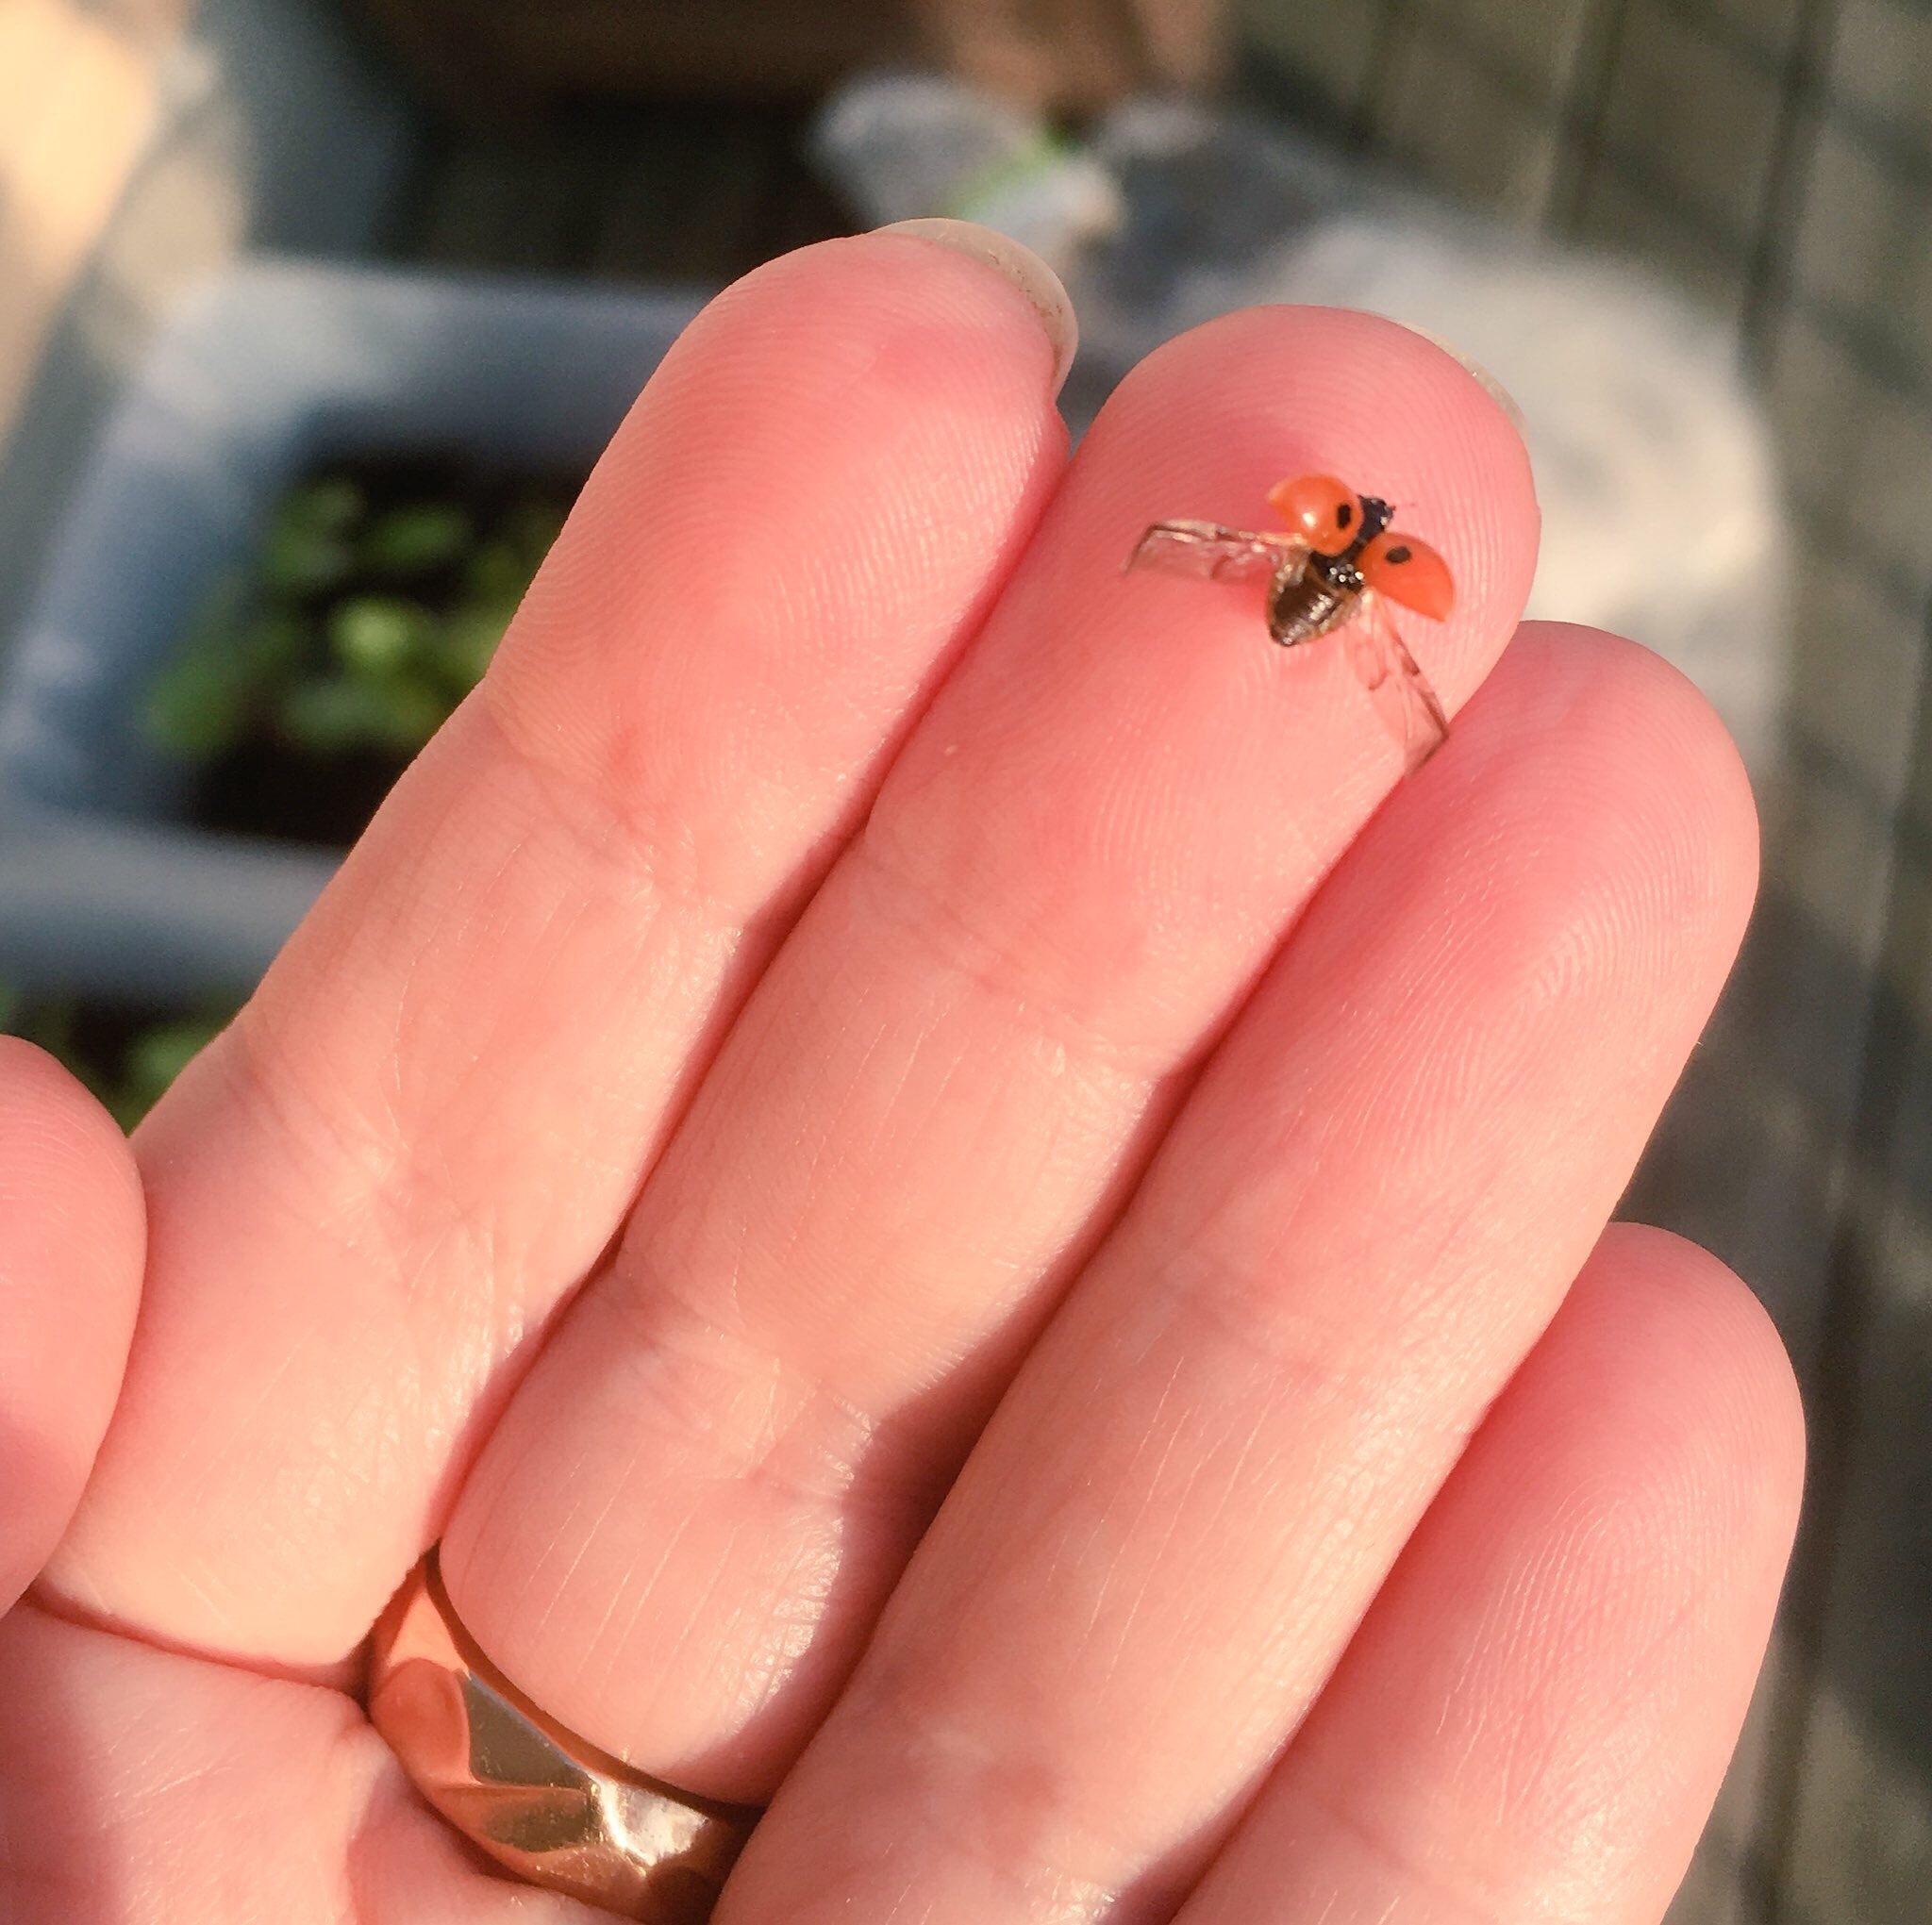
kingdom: Animalia
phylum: Arthropoda
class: Insecta
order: Coleoptera
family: Coccinellidae
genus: Adalia
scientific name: Adalia bipunctata
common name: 2-spot ladybird
